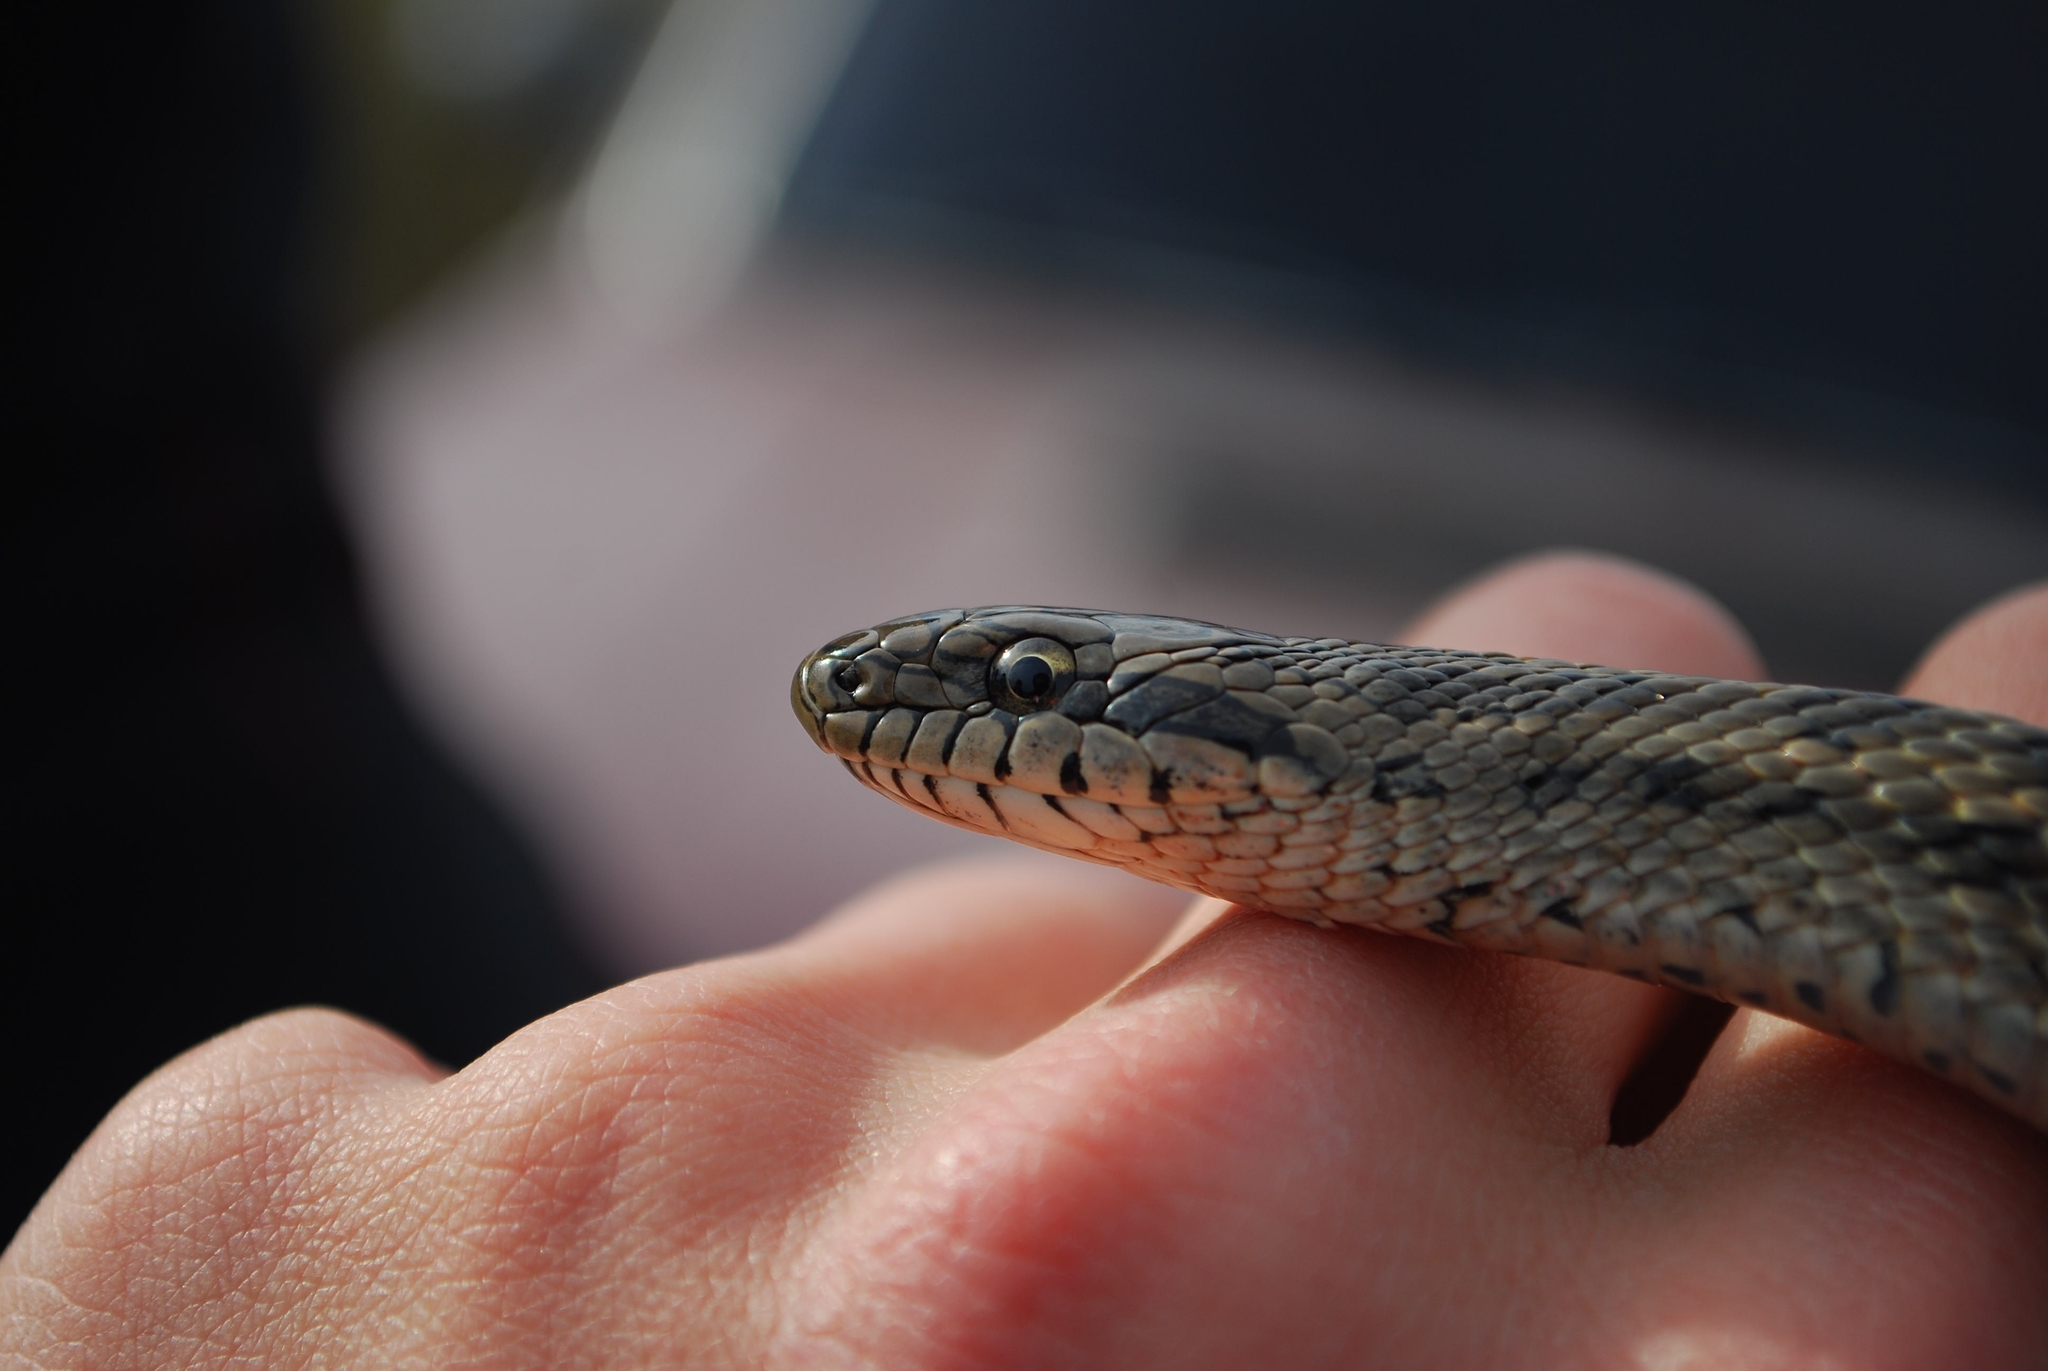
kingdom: Animalia
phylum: Chordata
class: Squamata
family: Colubridae
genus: Elaphe
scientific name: Elaphe dione
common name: Dione ratsnake
